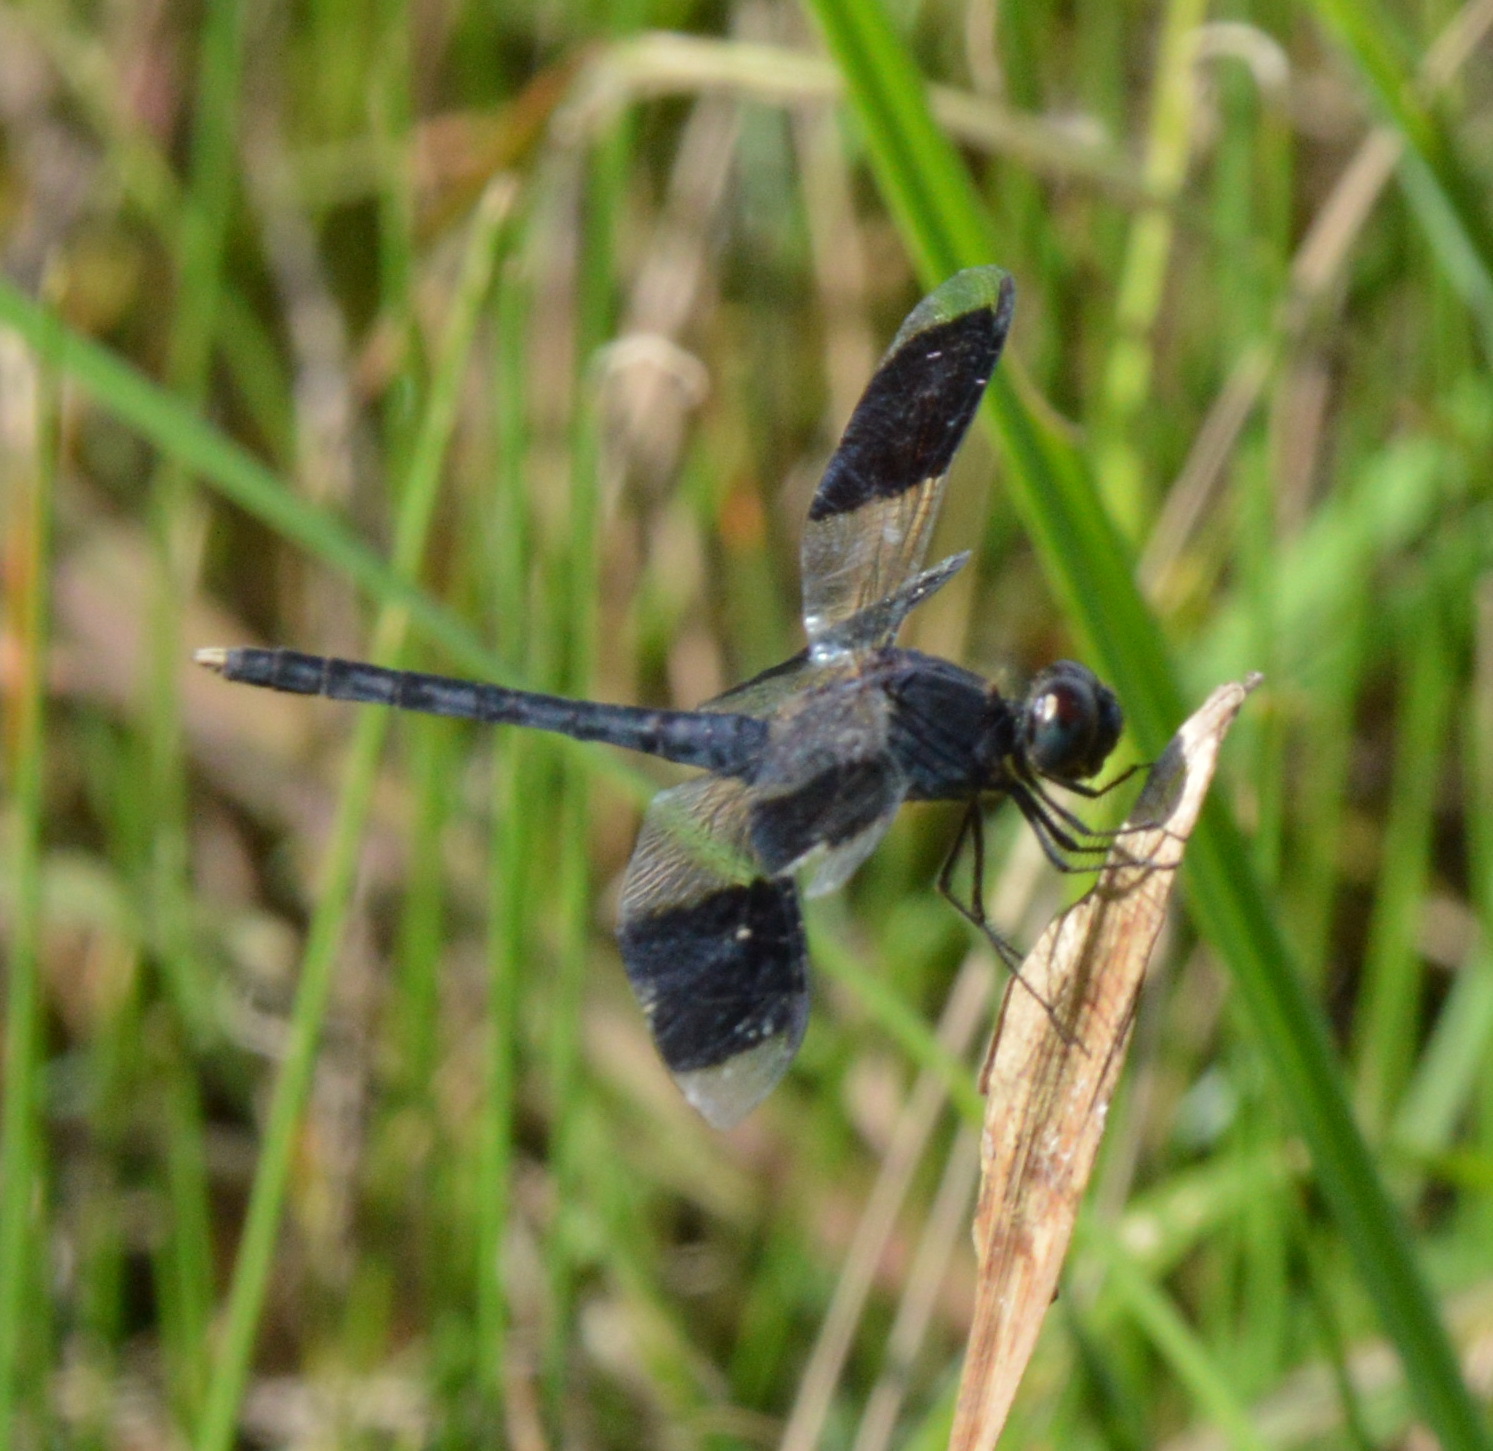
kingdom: Animalia
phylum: Arthropoda
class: Insecta
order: Odonata
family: Libellulidae
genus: Erythrodiplax
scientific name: Erythrodiplax umbrata
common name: Band-winged dragonlet
